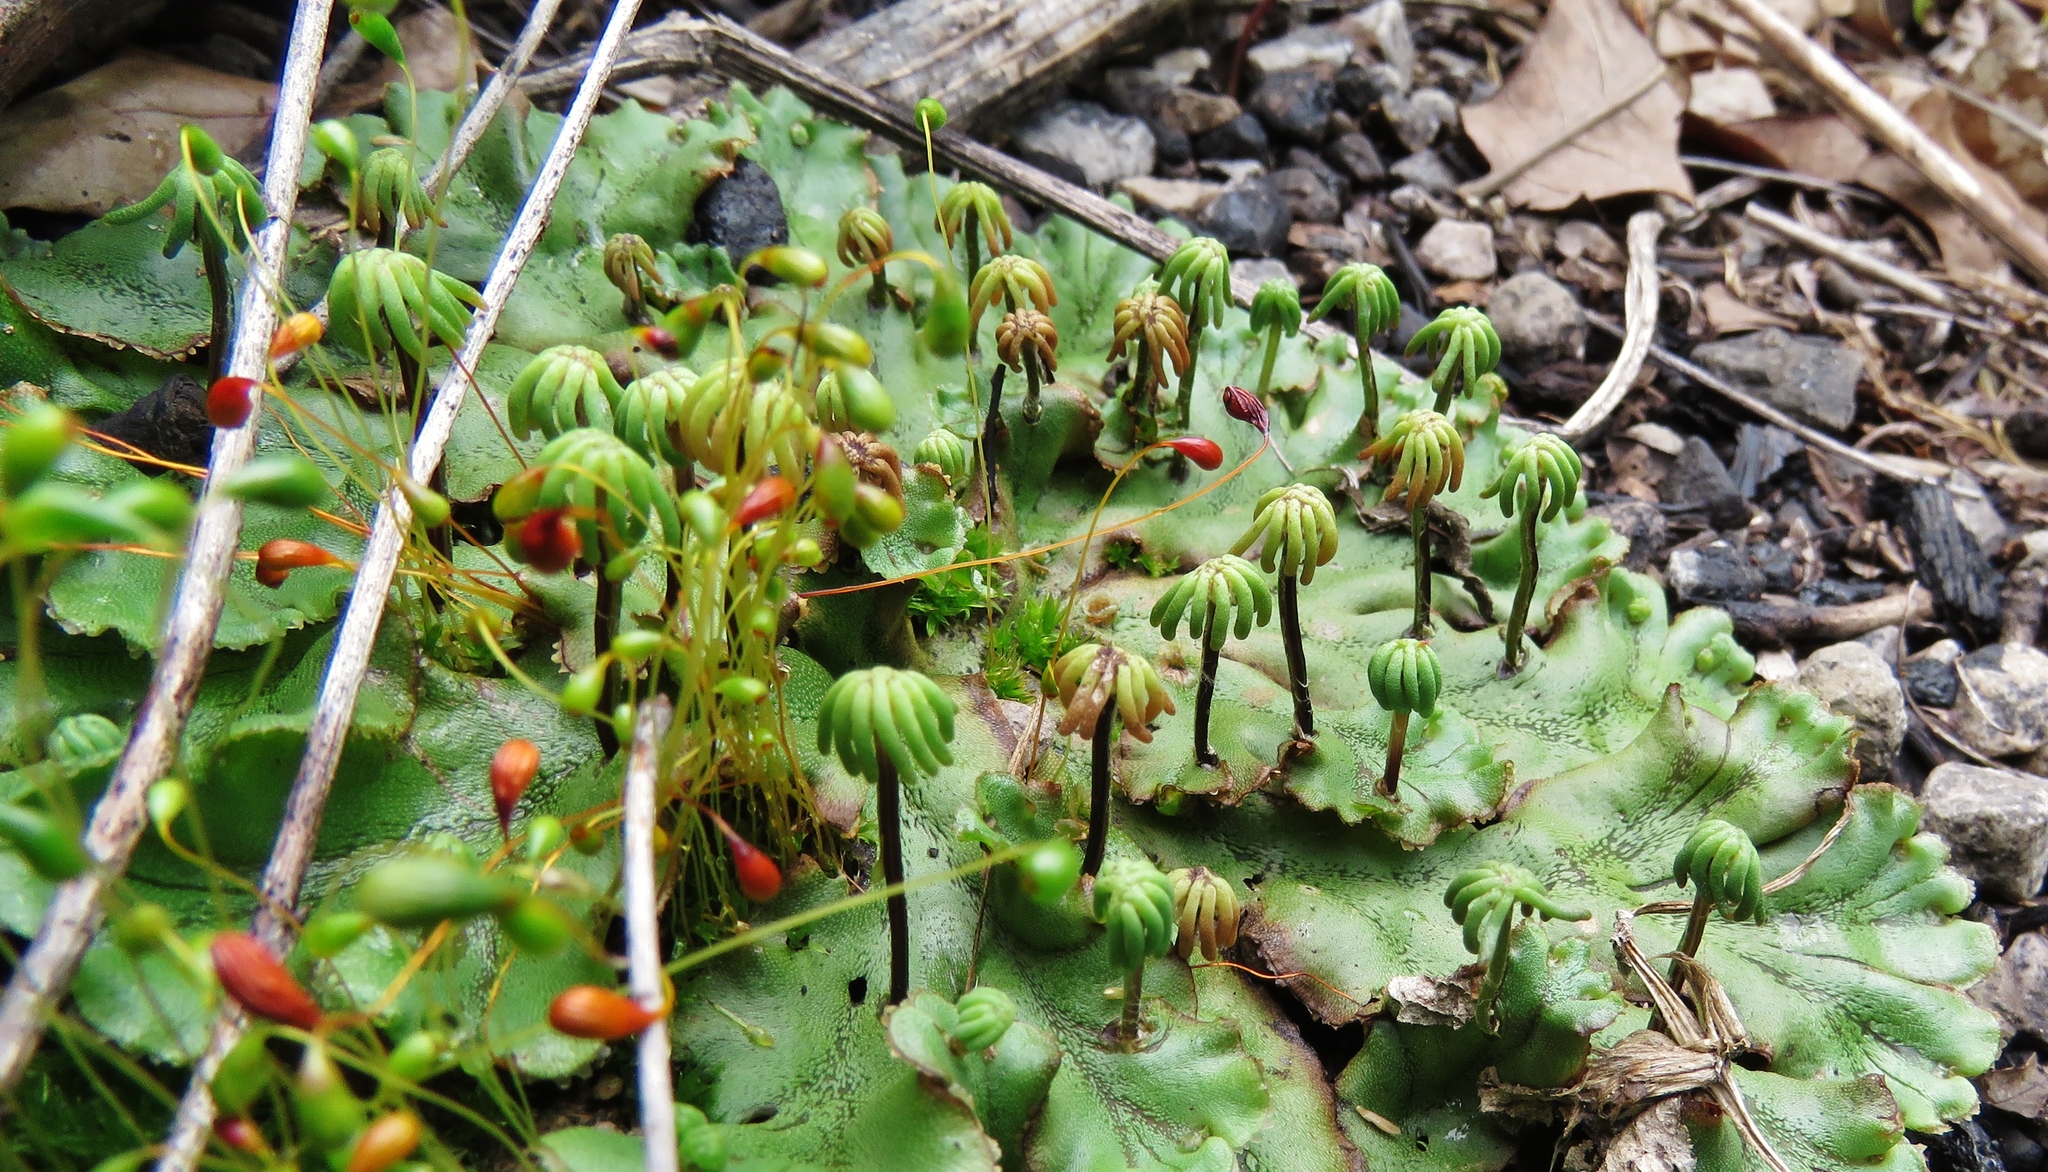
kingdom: Plantae
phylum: Marchantiophyta
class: Marchantiopsida
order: Marchantiales
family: Marchantiaceae
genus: Marchantia
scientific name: Marchantia polymorpha
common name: Common liverwort
